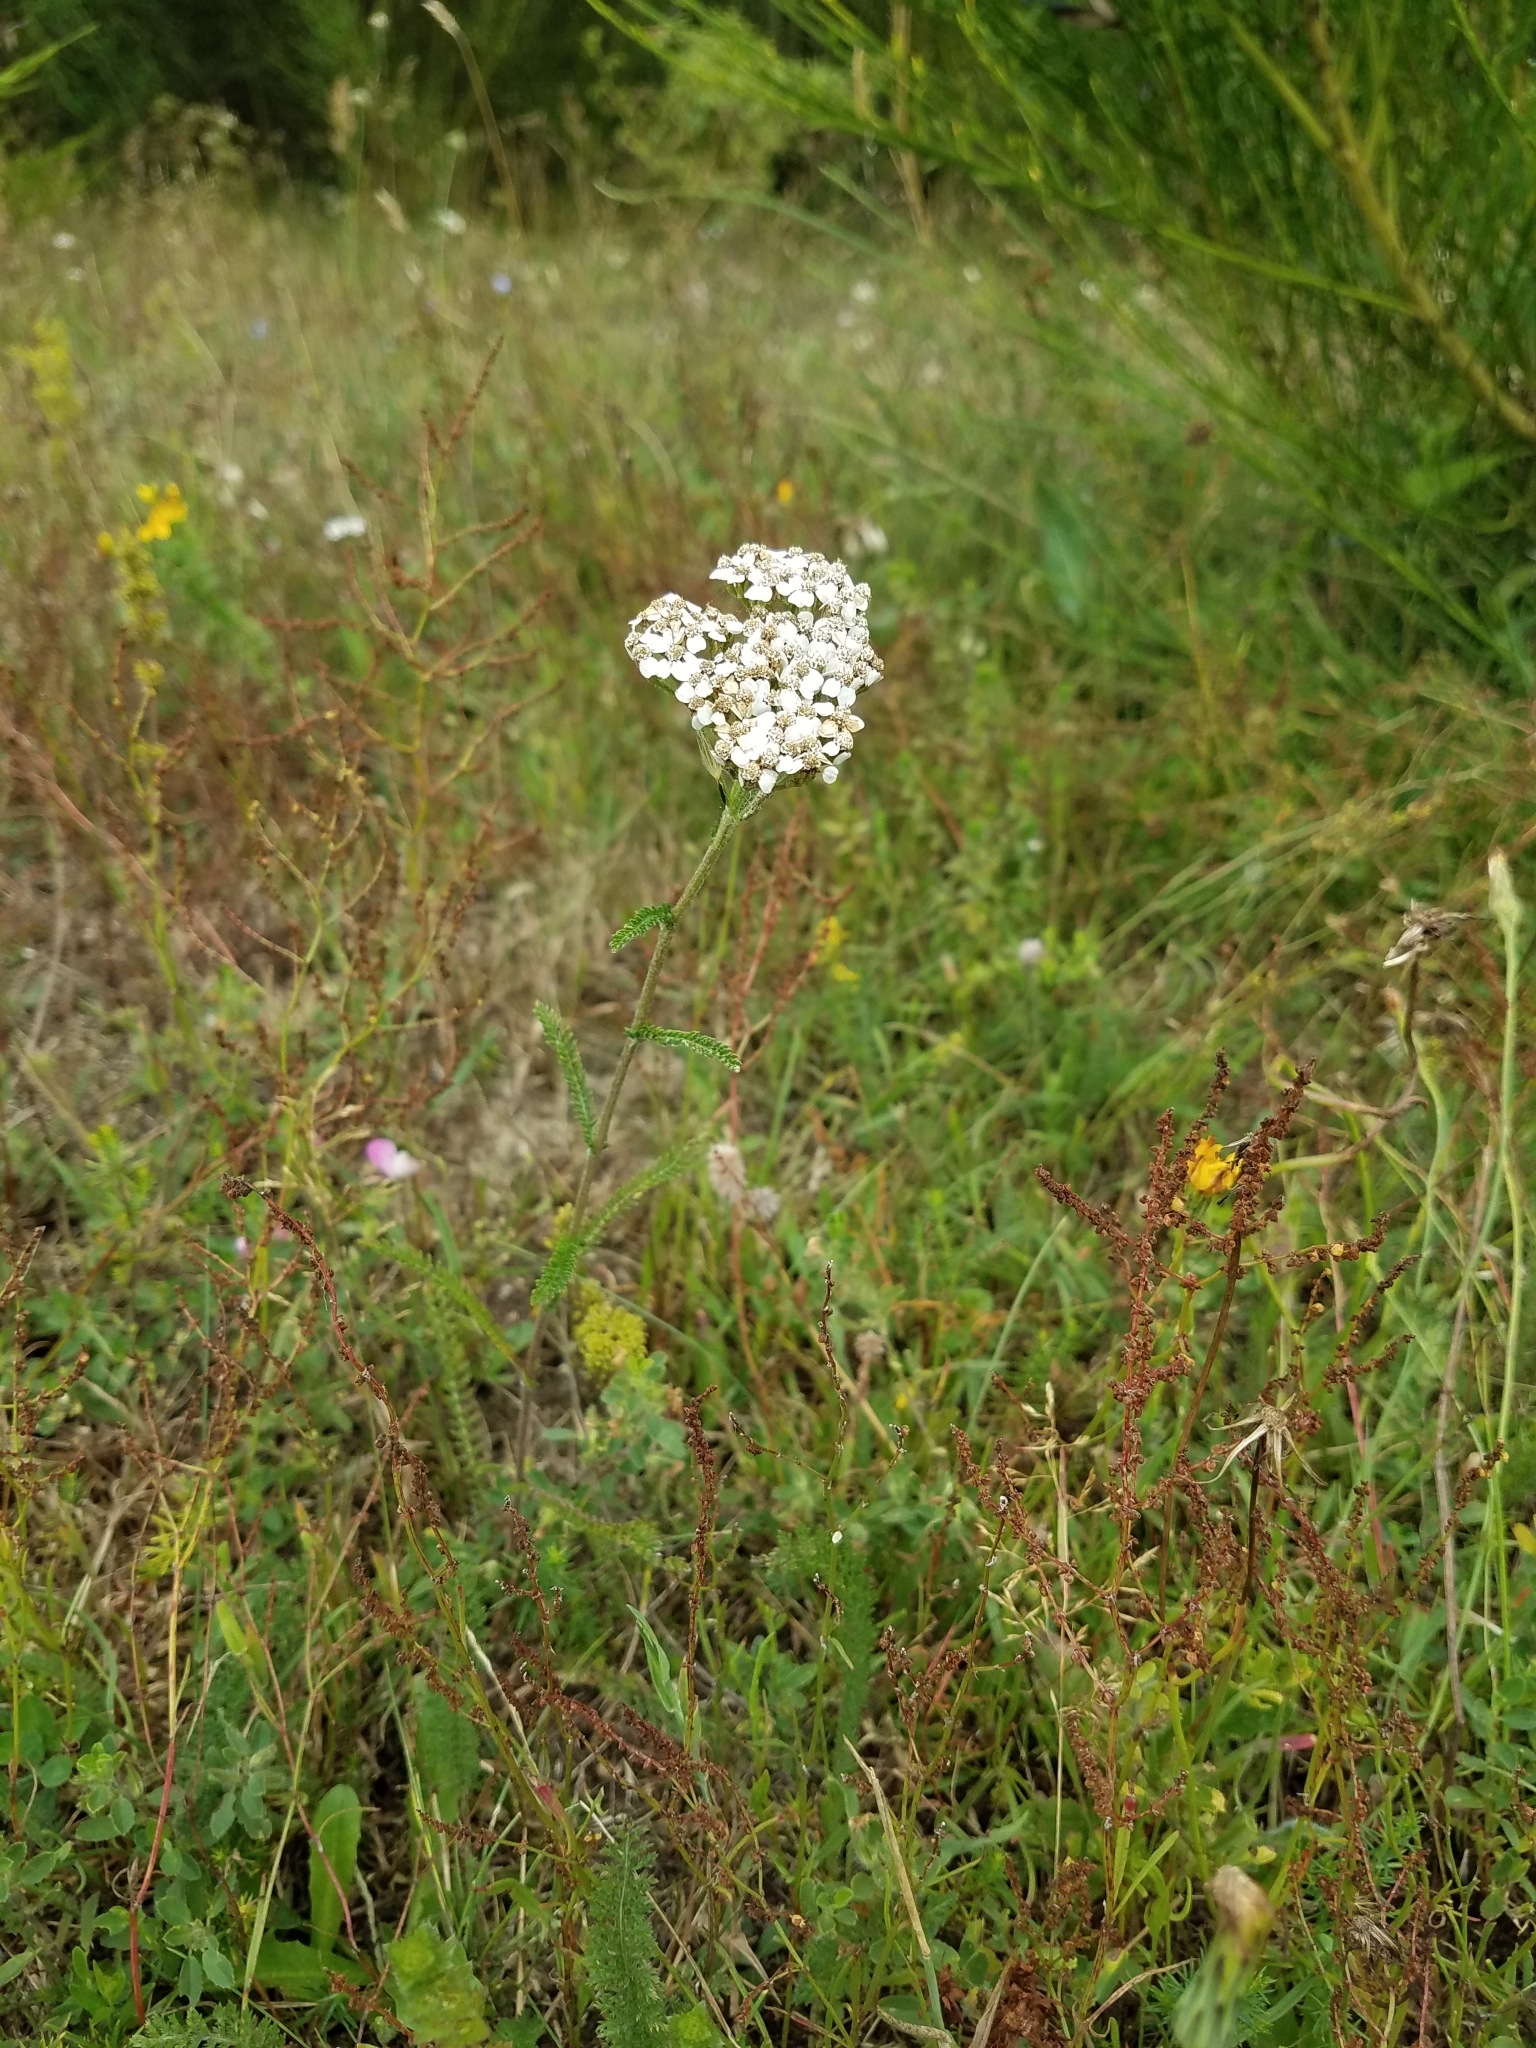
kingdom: Plantae
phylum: Tracheophyta
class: Magnoliopsida
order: Asterales
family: Asteraceae
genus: Achillea
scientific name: Achillea millefolium
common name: Yarrow
